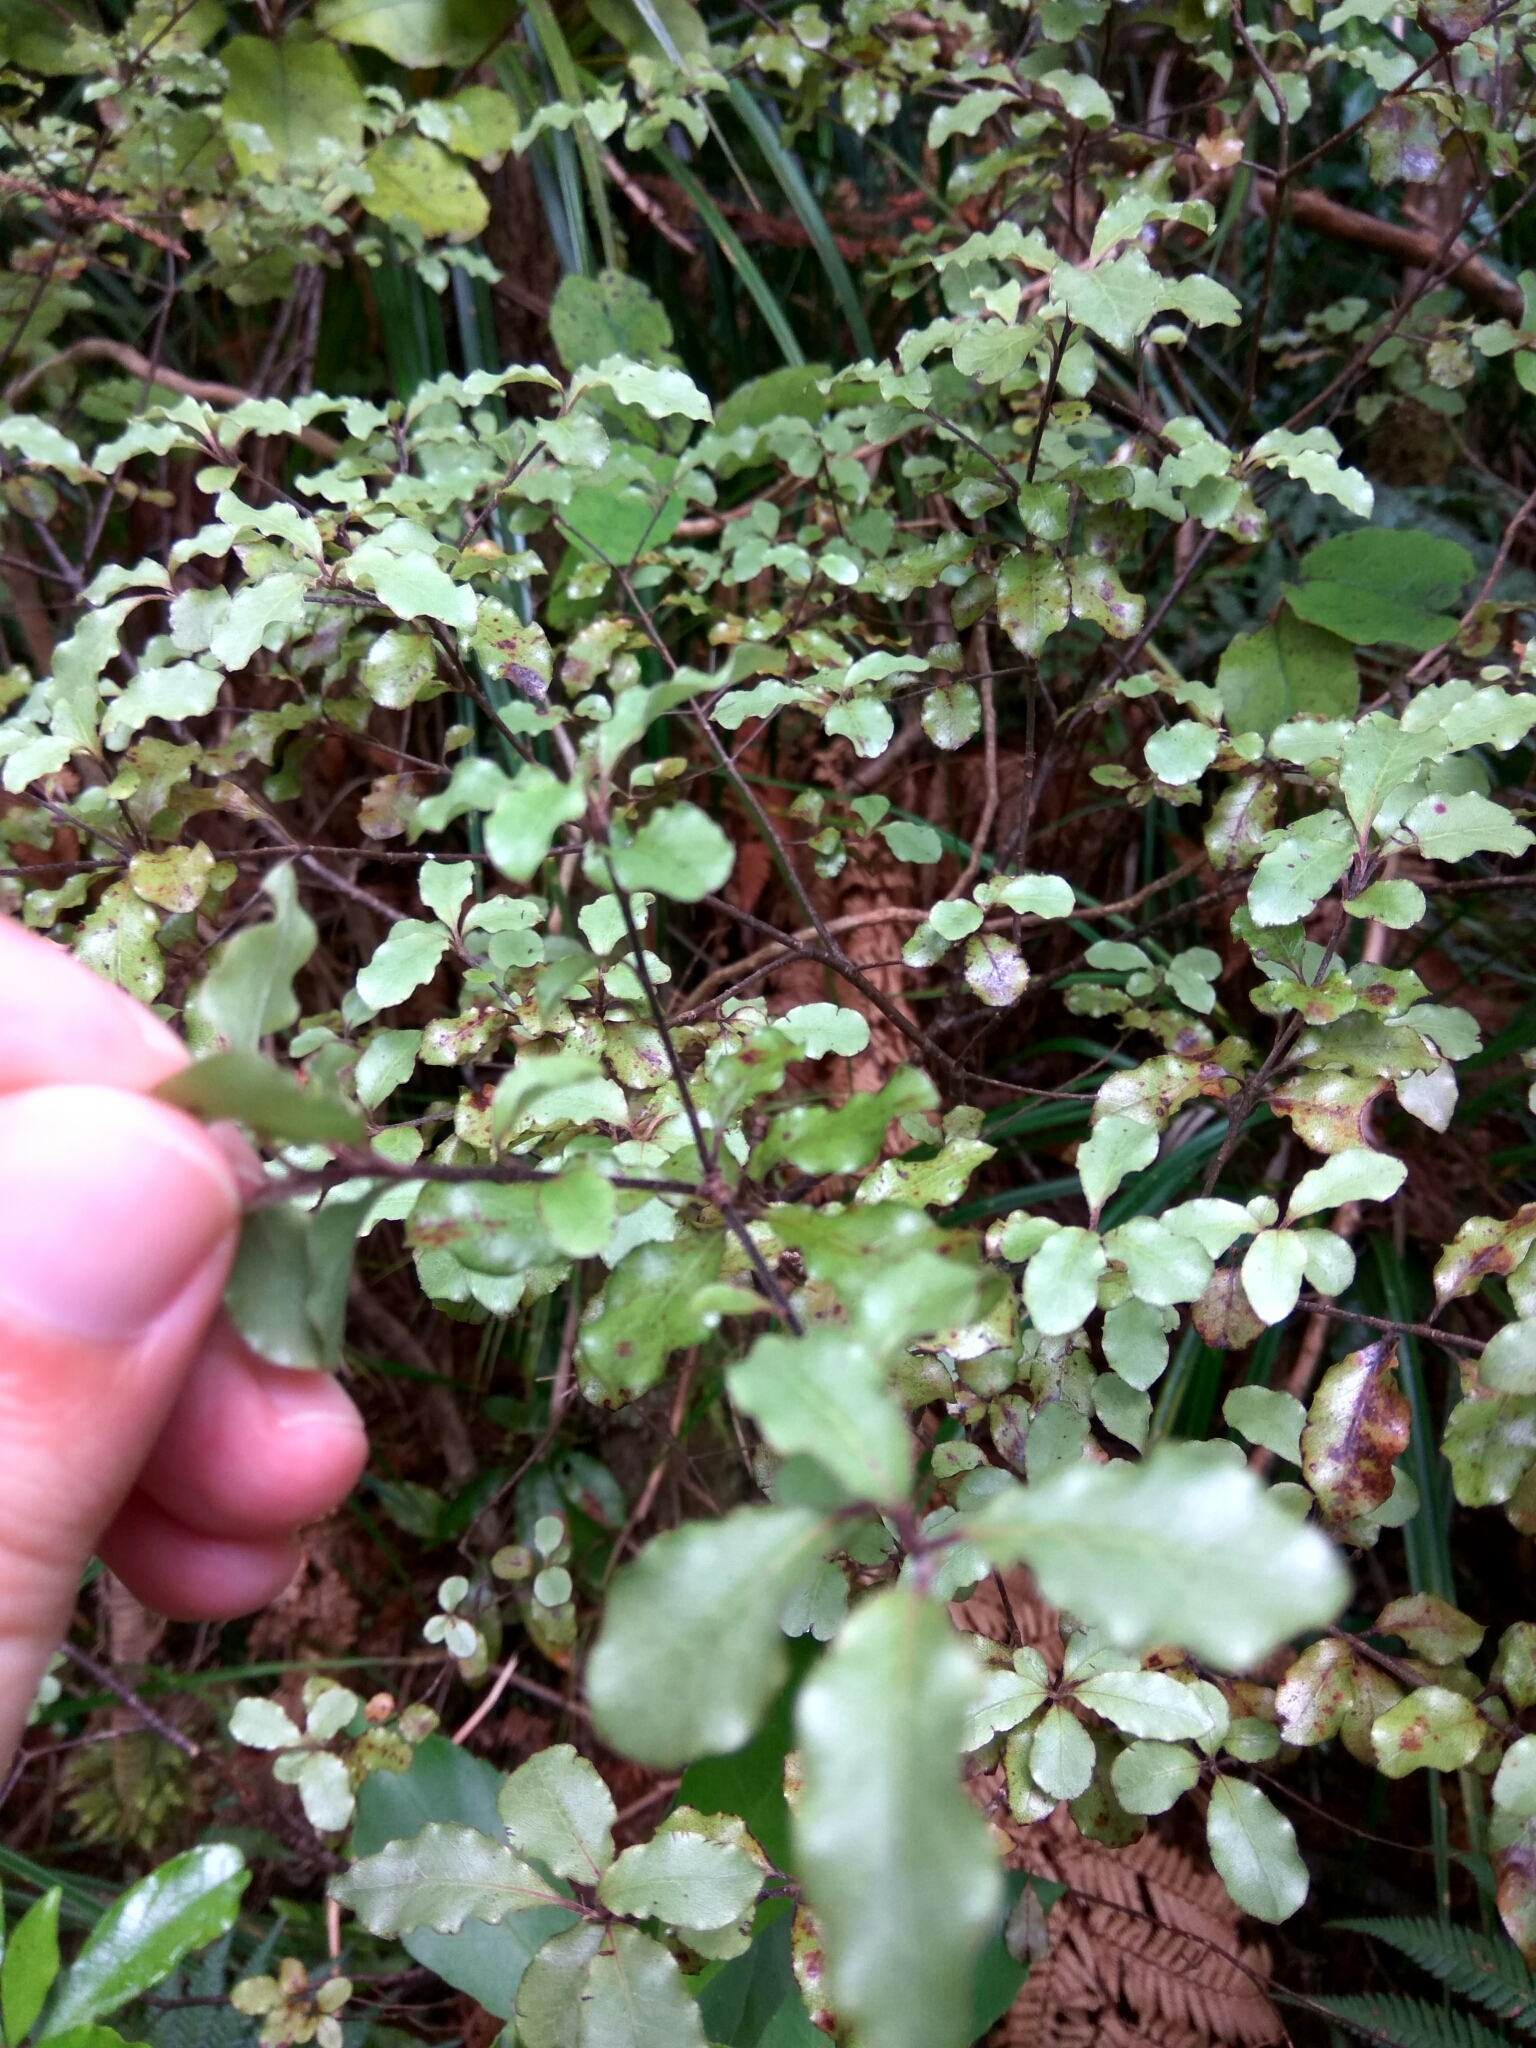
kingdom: Plantae
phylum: Tracheophyta
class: Magnoliopsida
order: Apiales
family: Pittosporaceae
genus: Pittosporum
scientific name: Pittosporum tenuifolium
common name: Kohuhu
